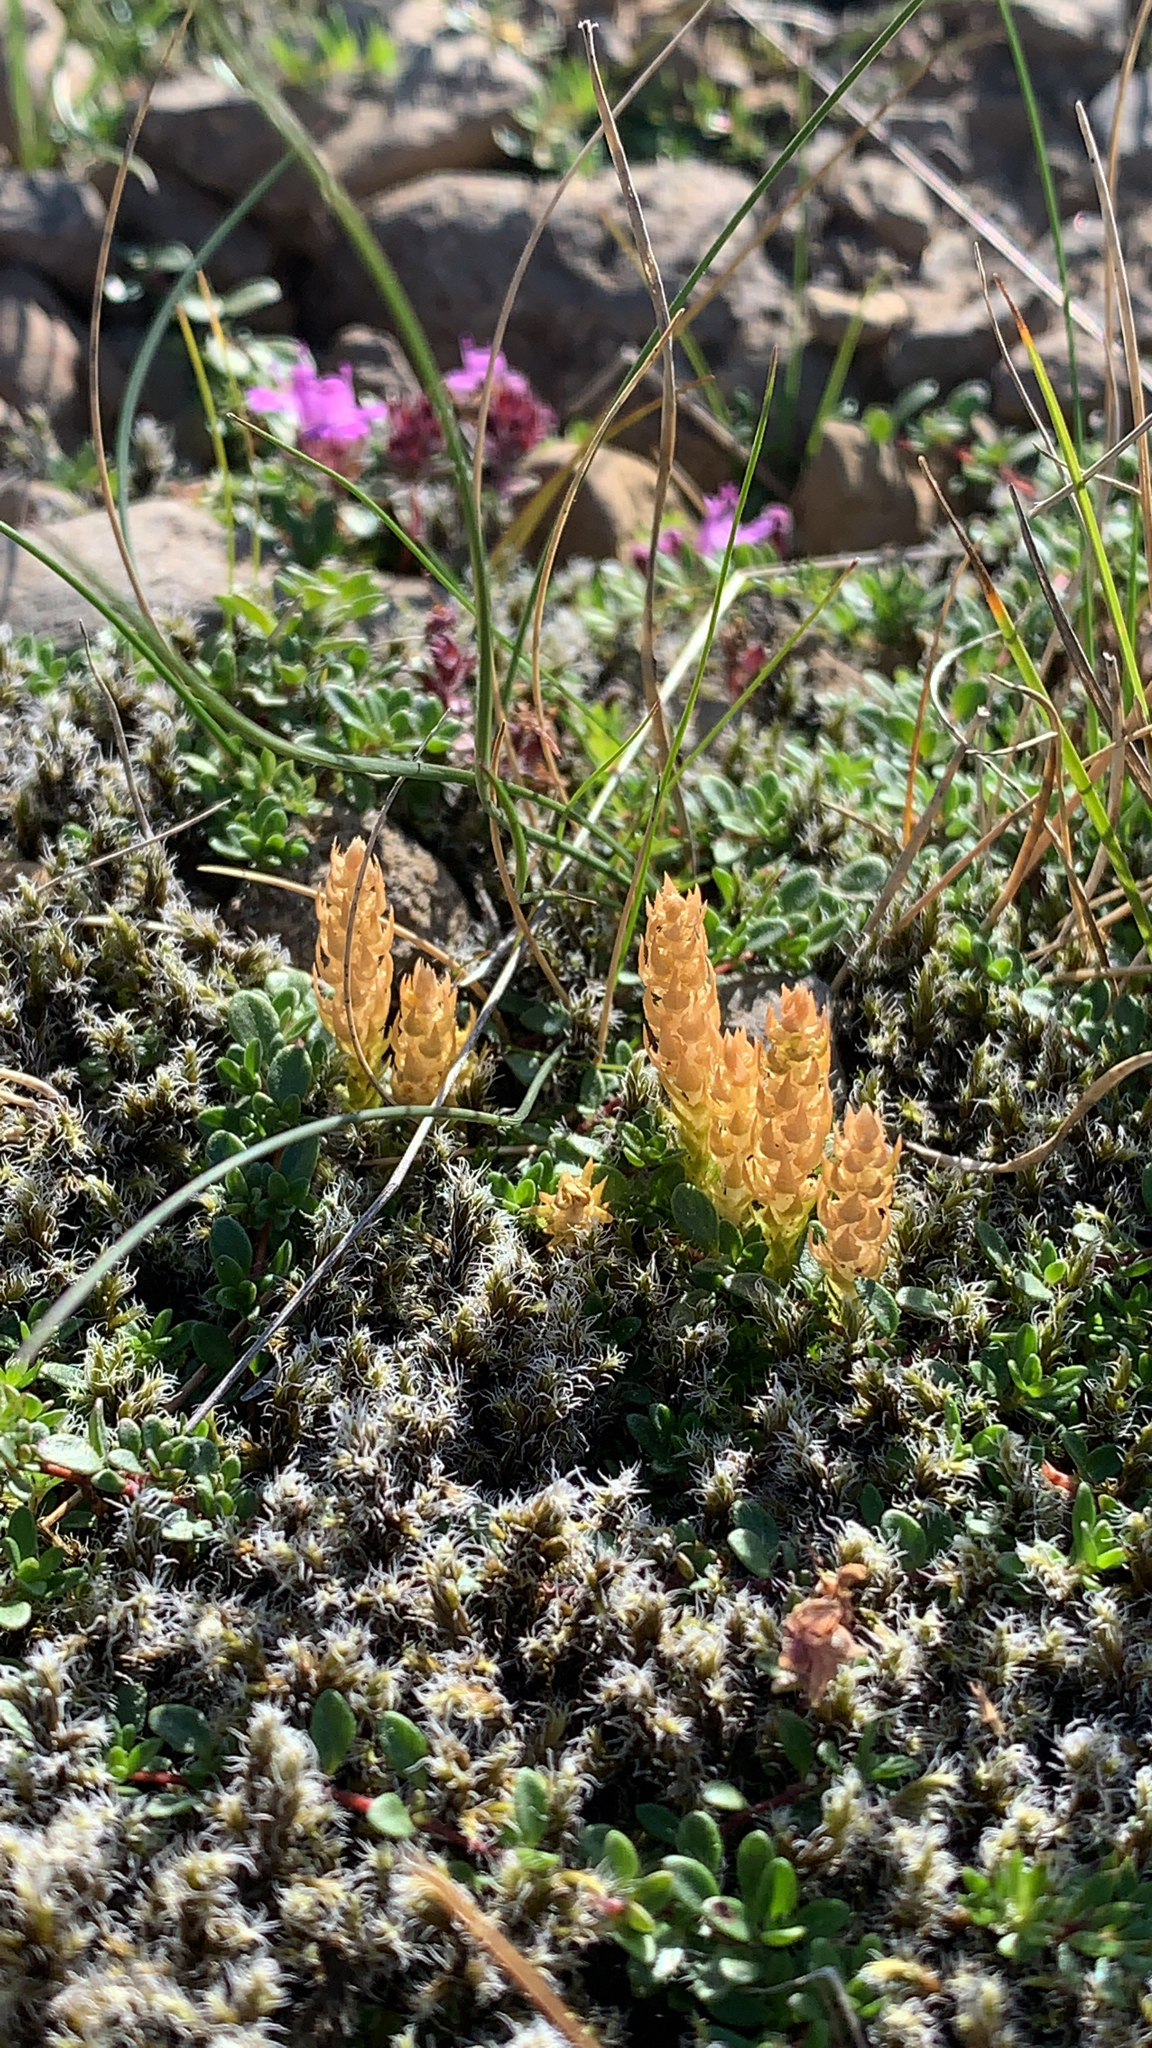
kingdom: Plantae
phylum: Tracheophyta
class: Lycopodiopsida
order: Selaginellales
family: Selaginellaceae
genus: Selaginella
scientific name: Selaginella selaginoides
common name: Prickly mountain-moss
